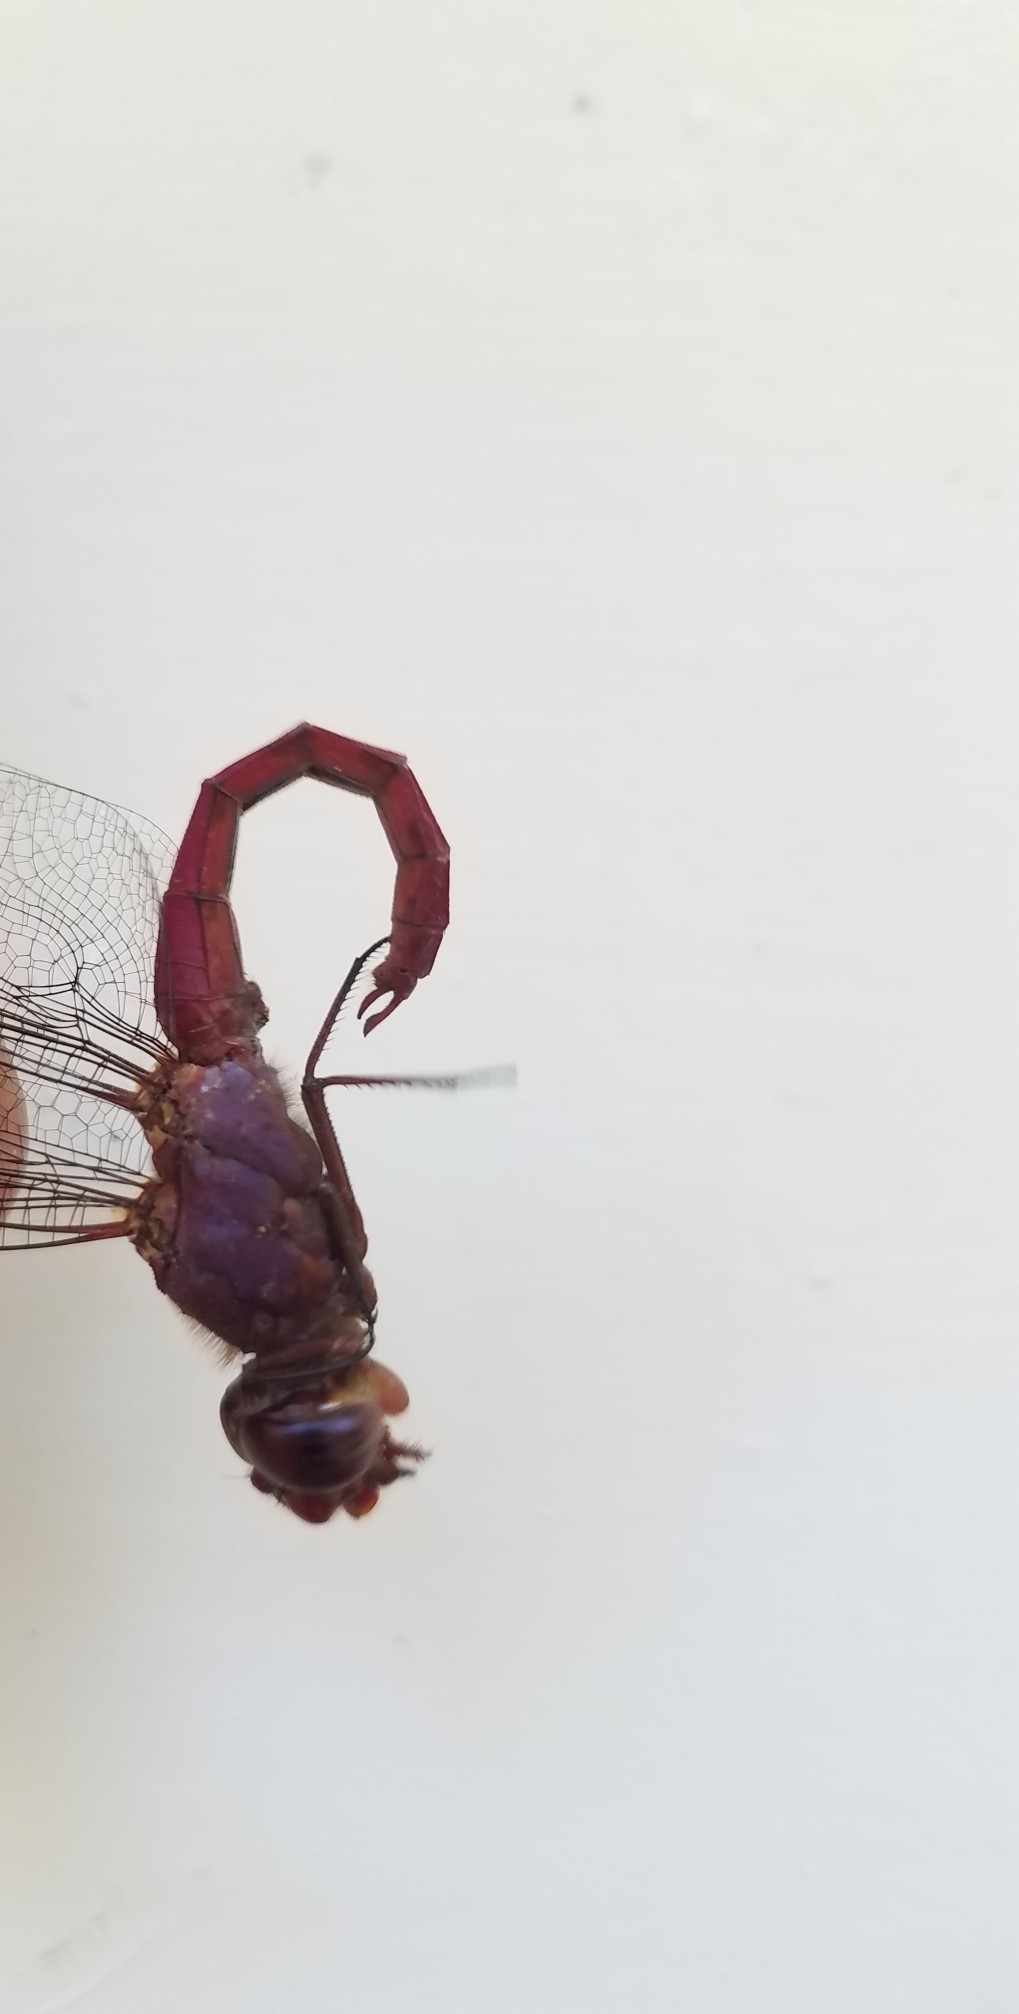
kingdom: Animalia
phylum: Arthropoda
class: Insecta
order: Odonata
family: Libellulidae
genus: Orthemis
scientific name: Orthemis ferruginea
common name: Roseate skimmer
